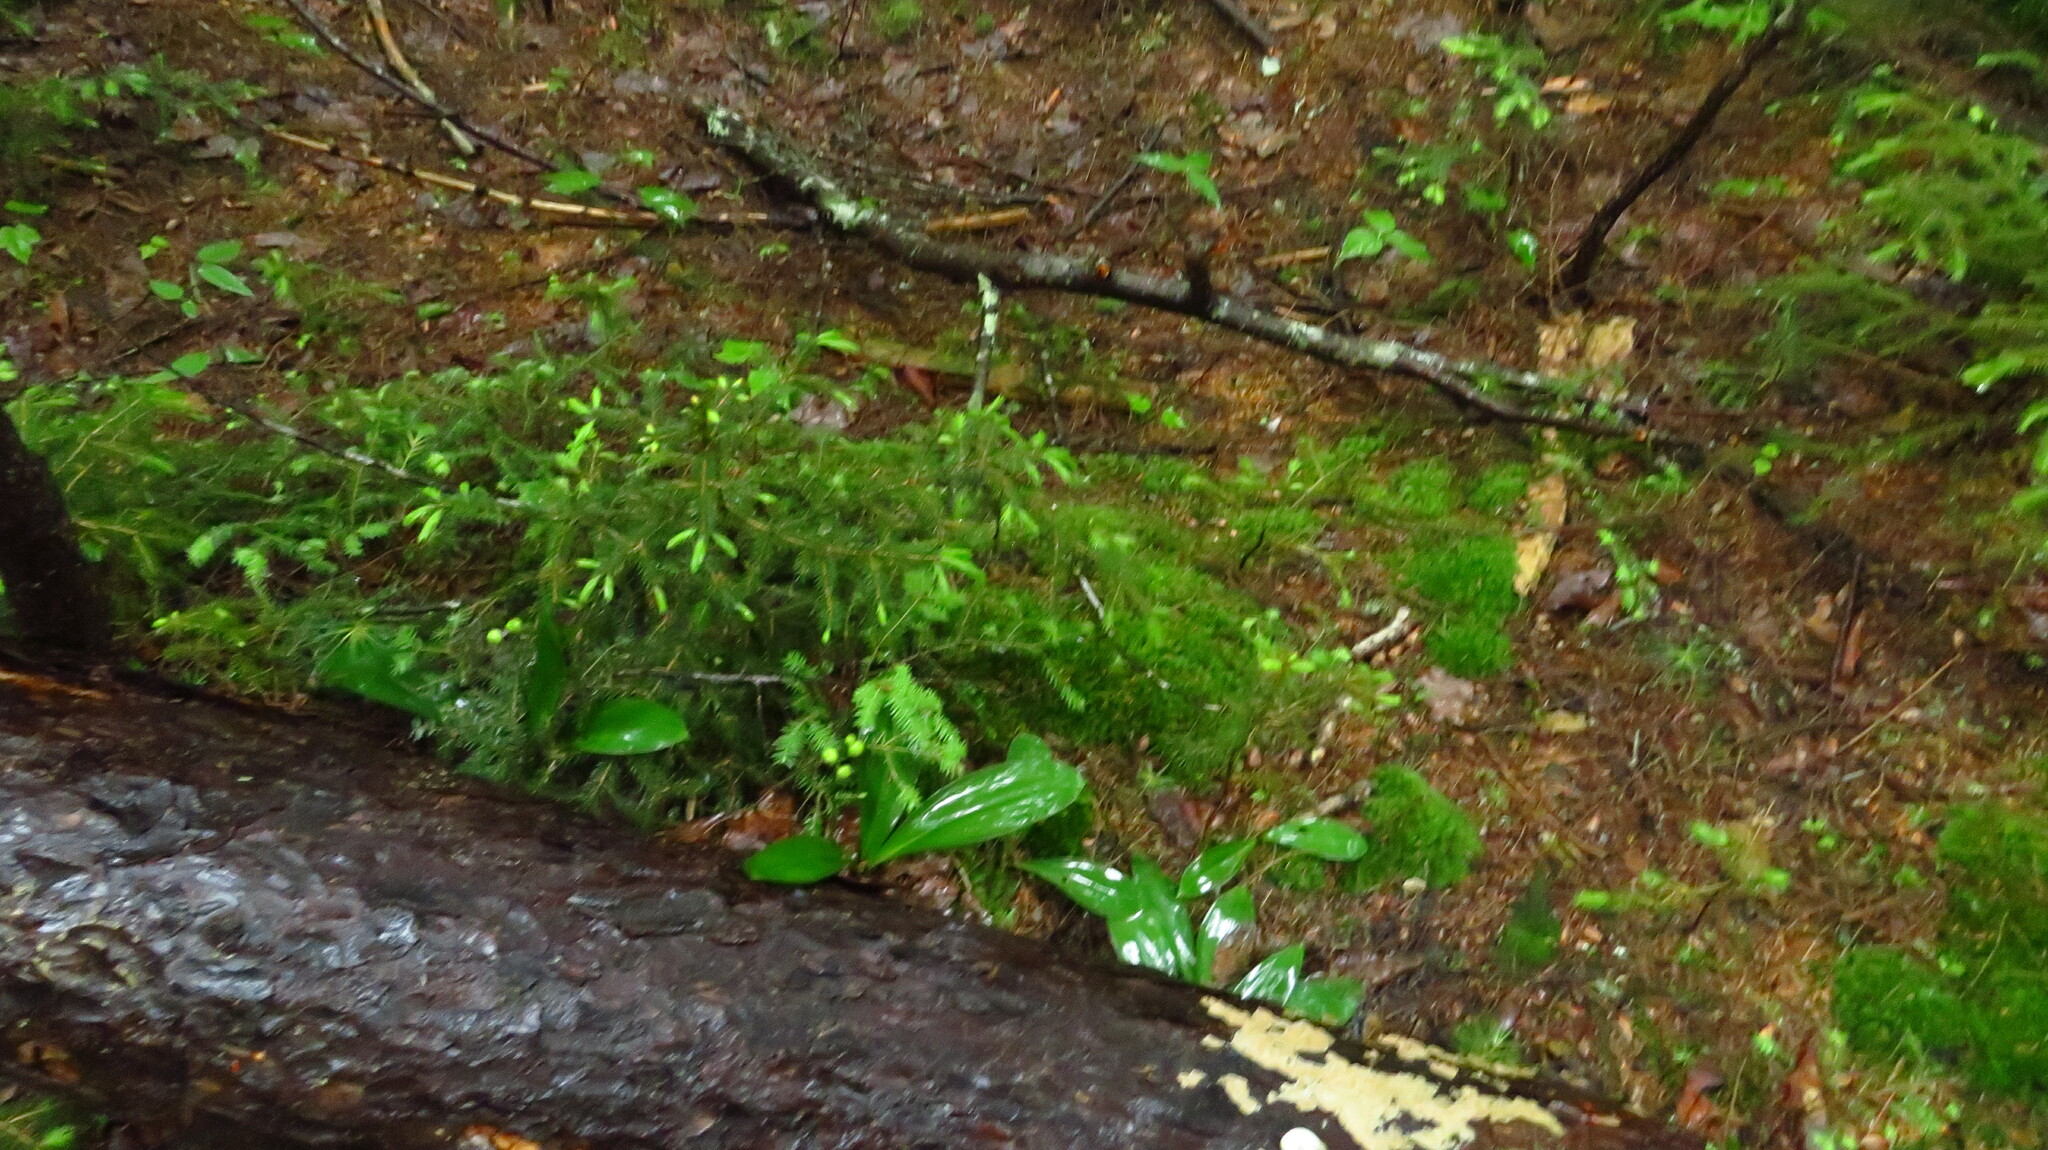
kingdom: Plantae
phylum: Tracheophyta
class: Liliopsida
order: Liliales
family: Liliaceae
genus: Clintonia
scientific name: Clintonia borealis
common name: Yellow clintonia
